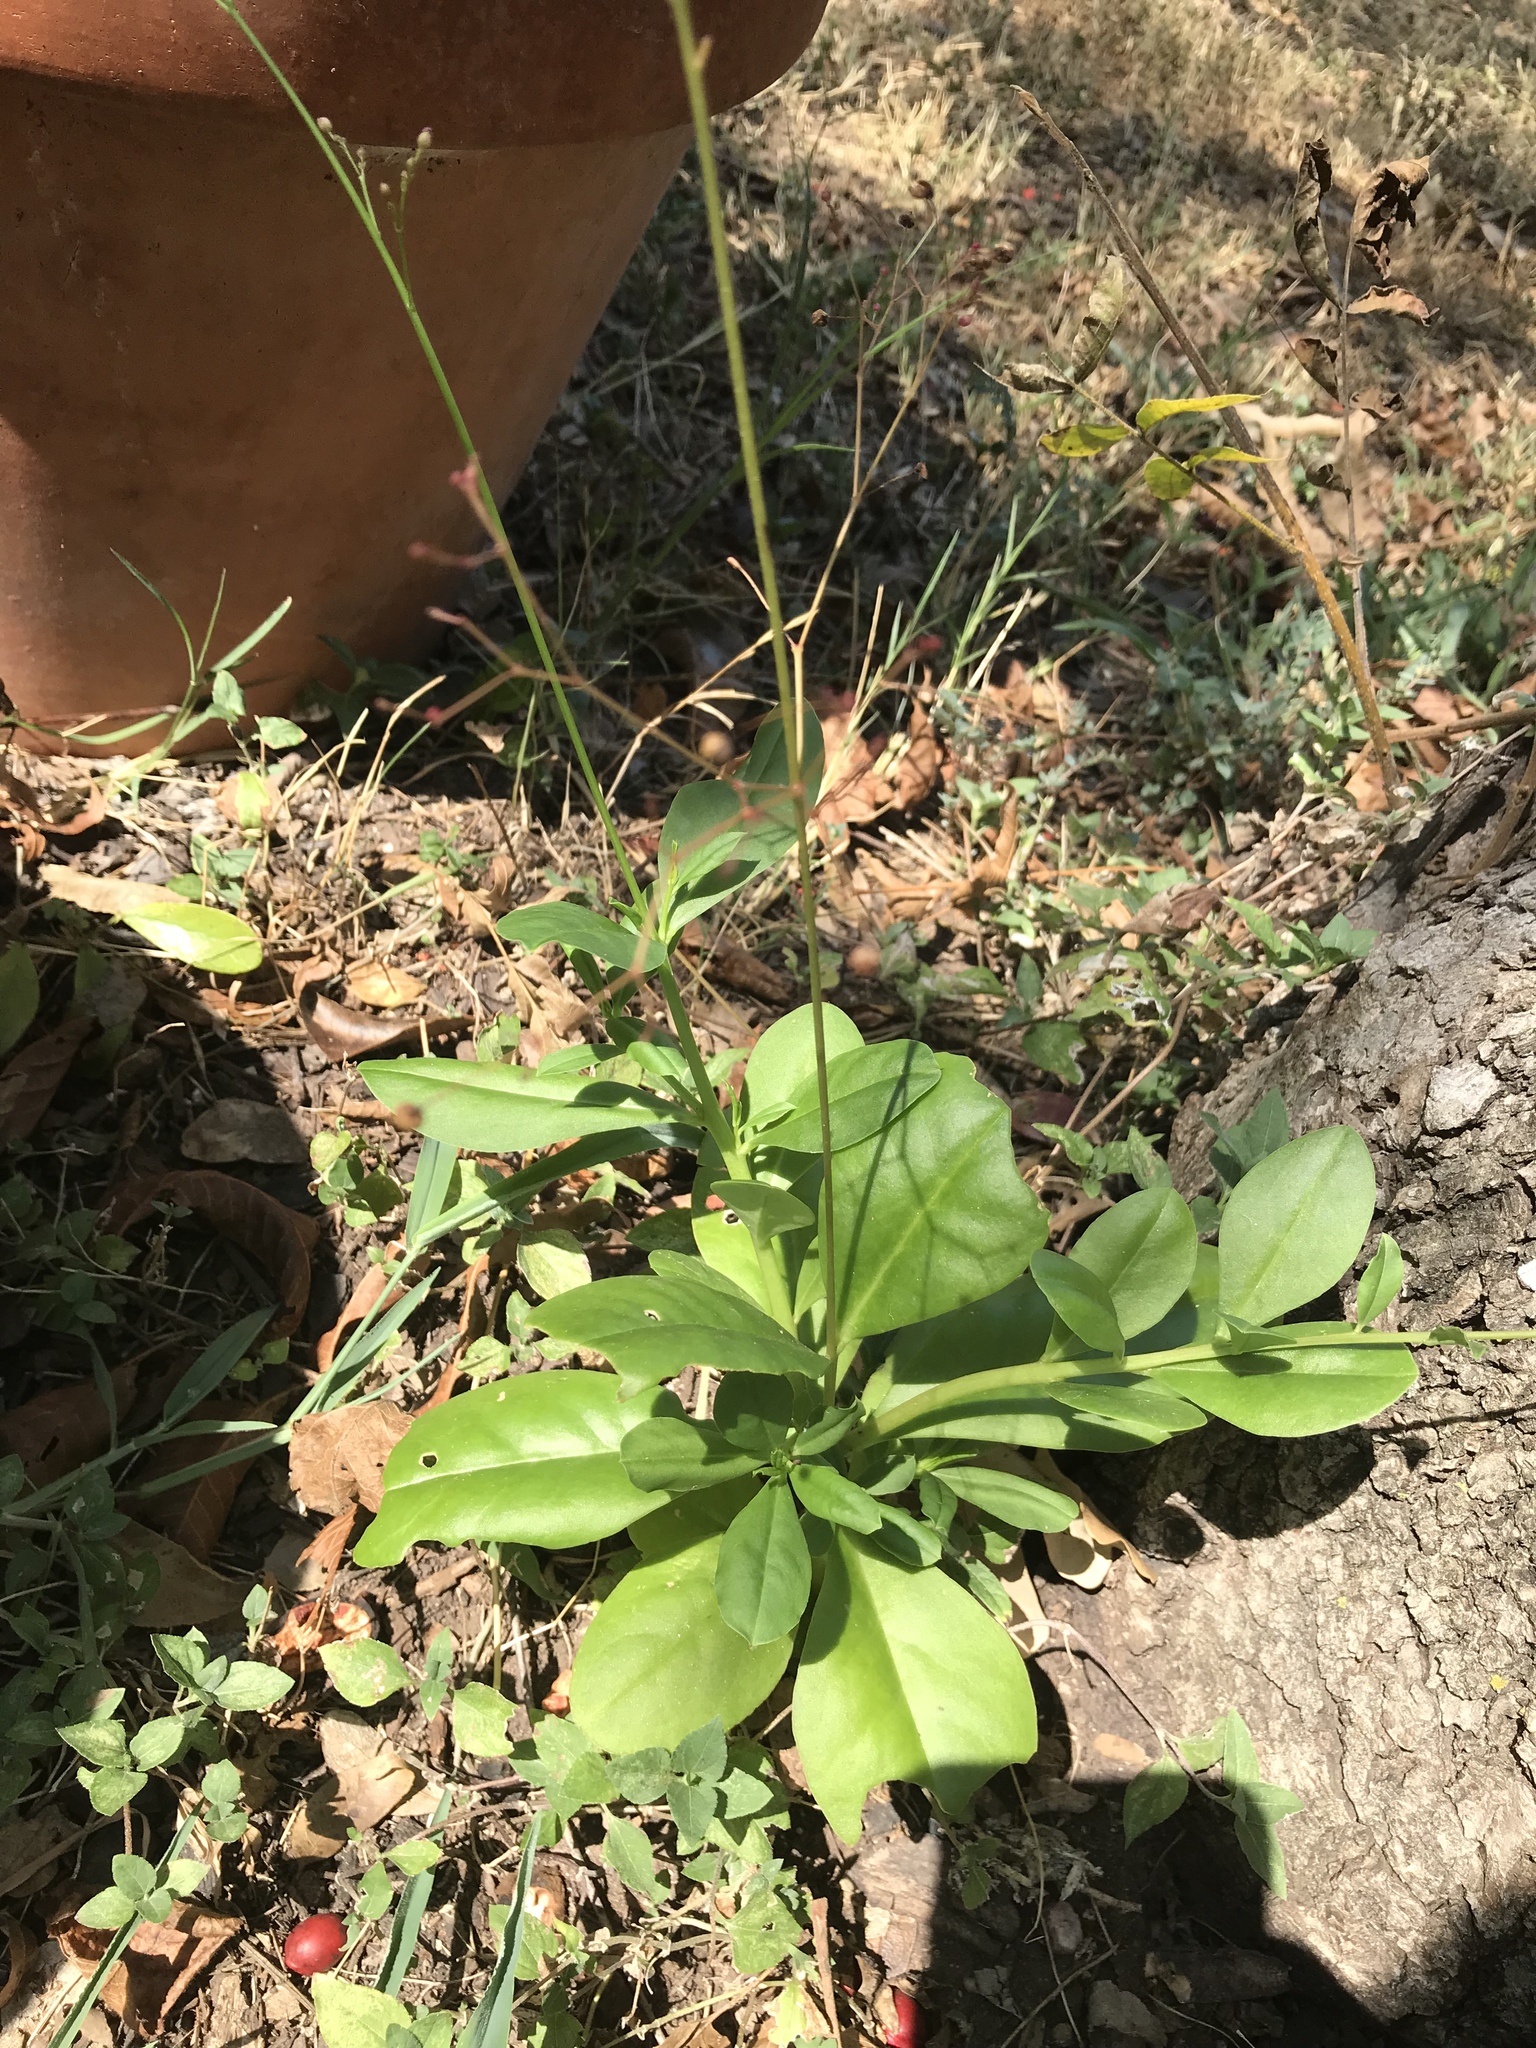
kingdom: Plantae
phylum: Tracheophyta
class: Magnoliopsida
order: Caryophyllales
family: Talinaceae
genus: Talinum
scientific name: Talinum paniculatum
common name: Jewels of opar
